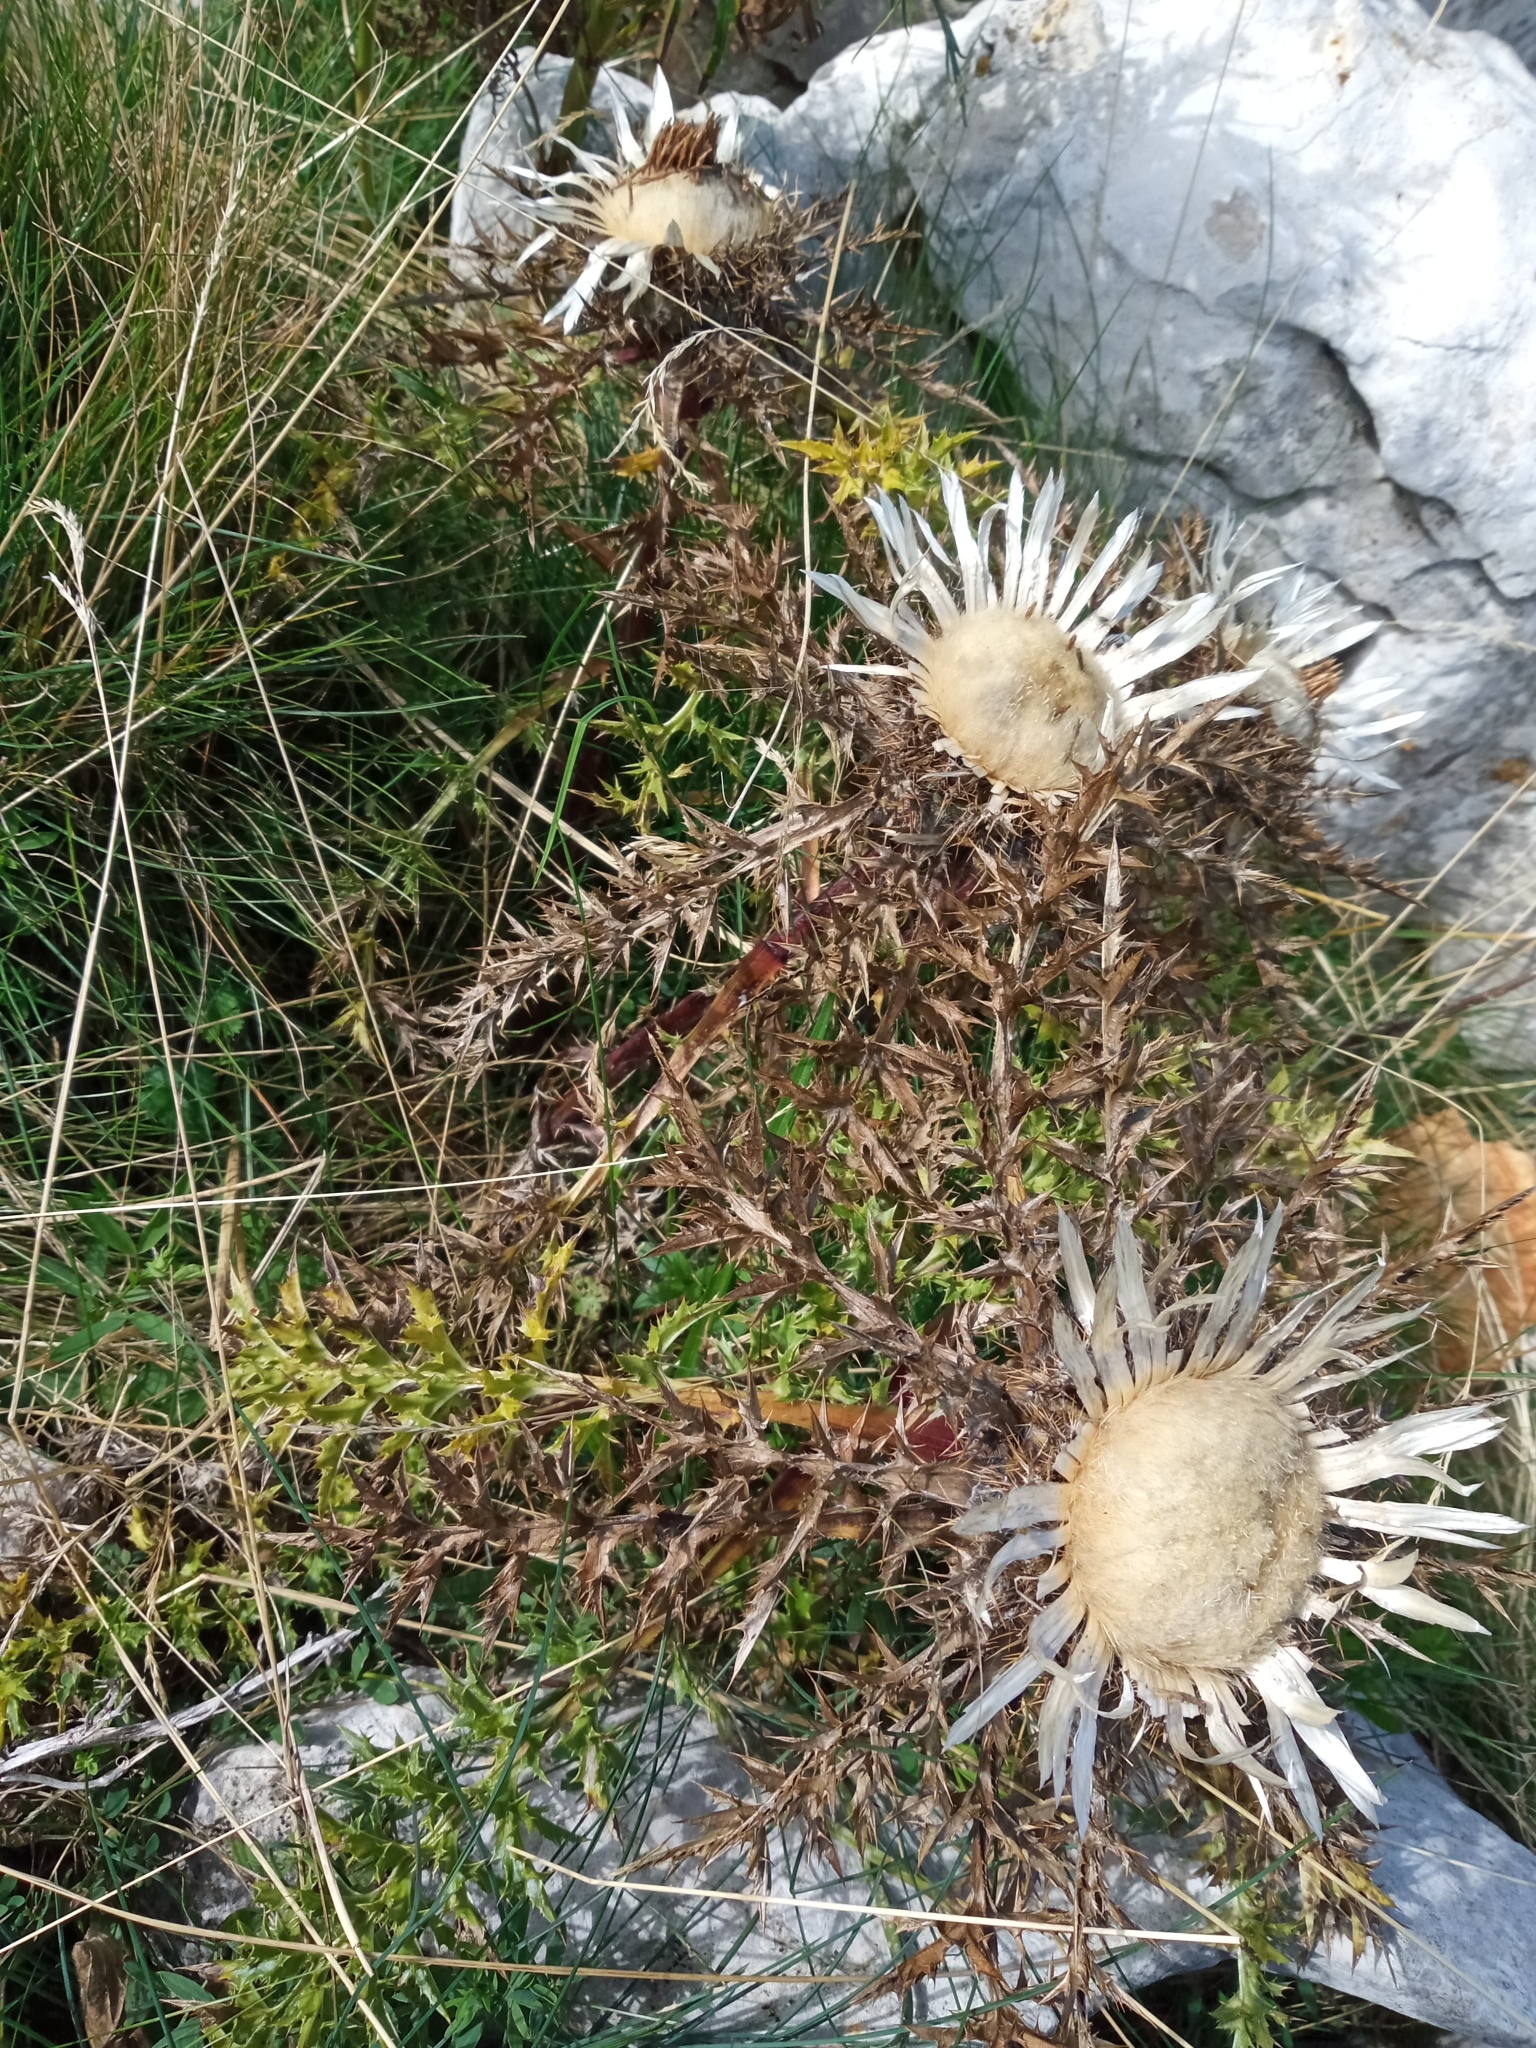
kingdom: Plantae
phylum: Tracheophyta
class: Magnoliopsida
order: Asterales
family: Asteraceae
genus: Carlina
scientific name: Carlina acaulis
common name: Stemless carline thistle
